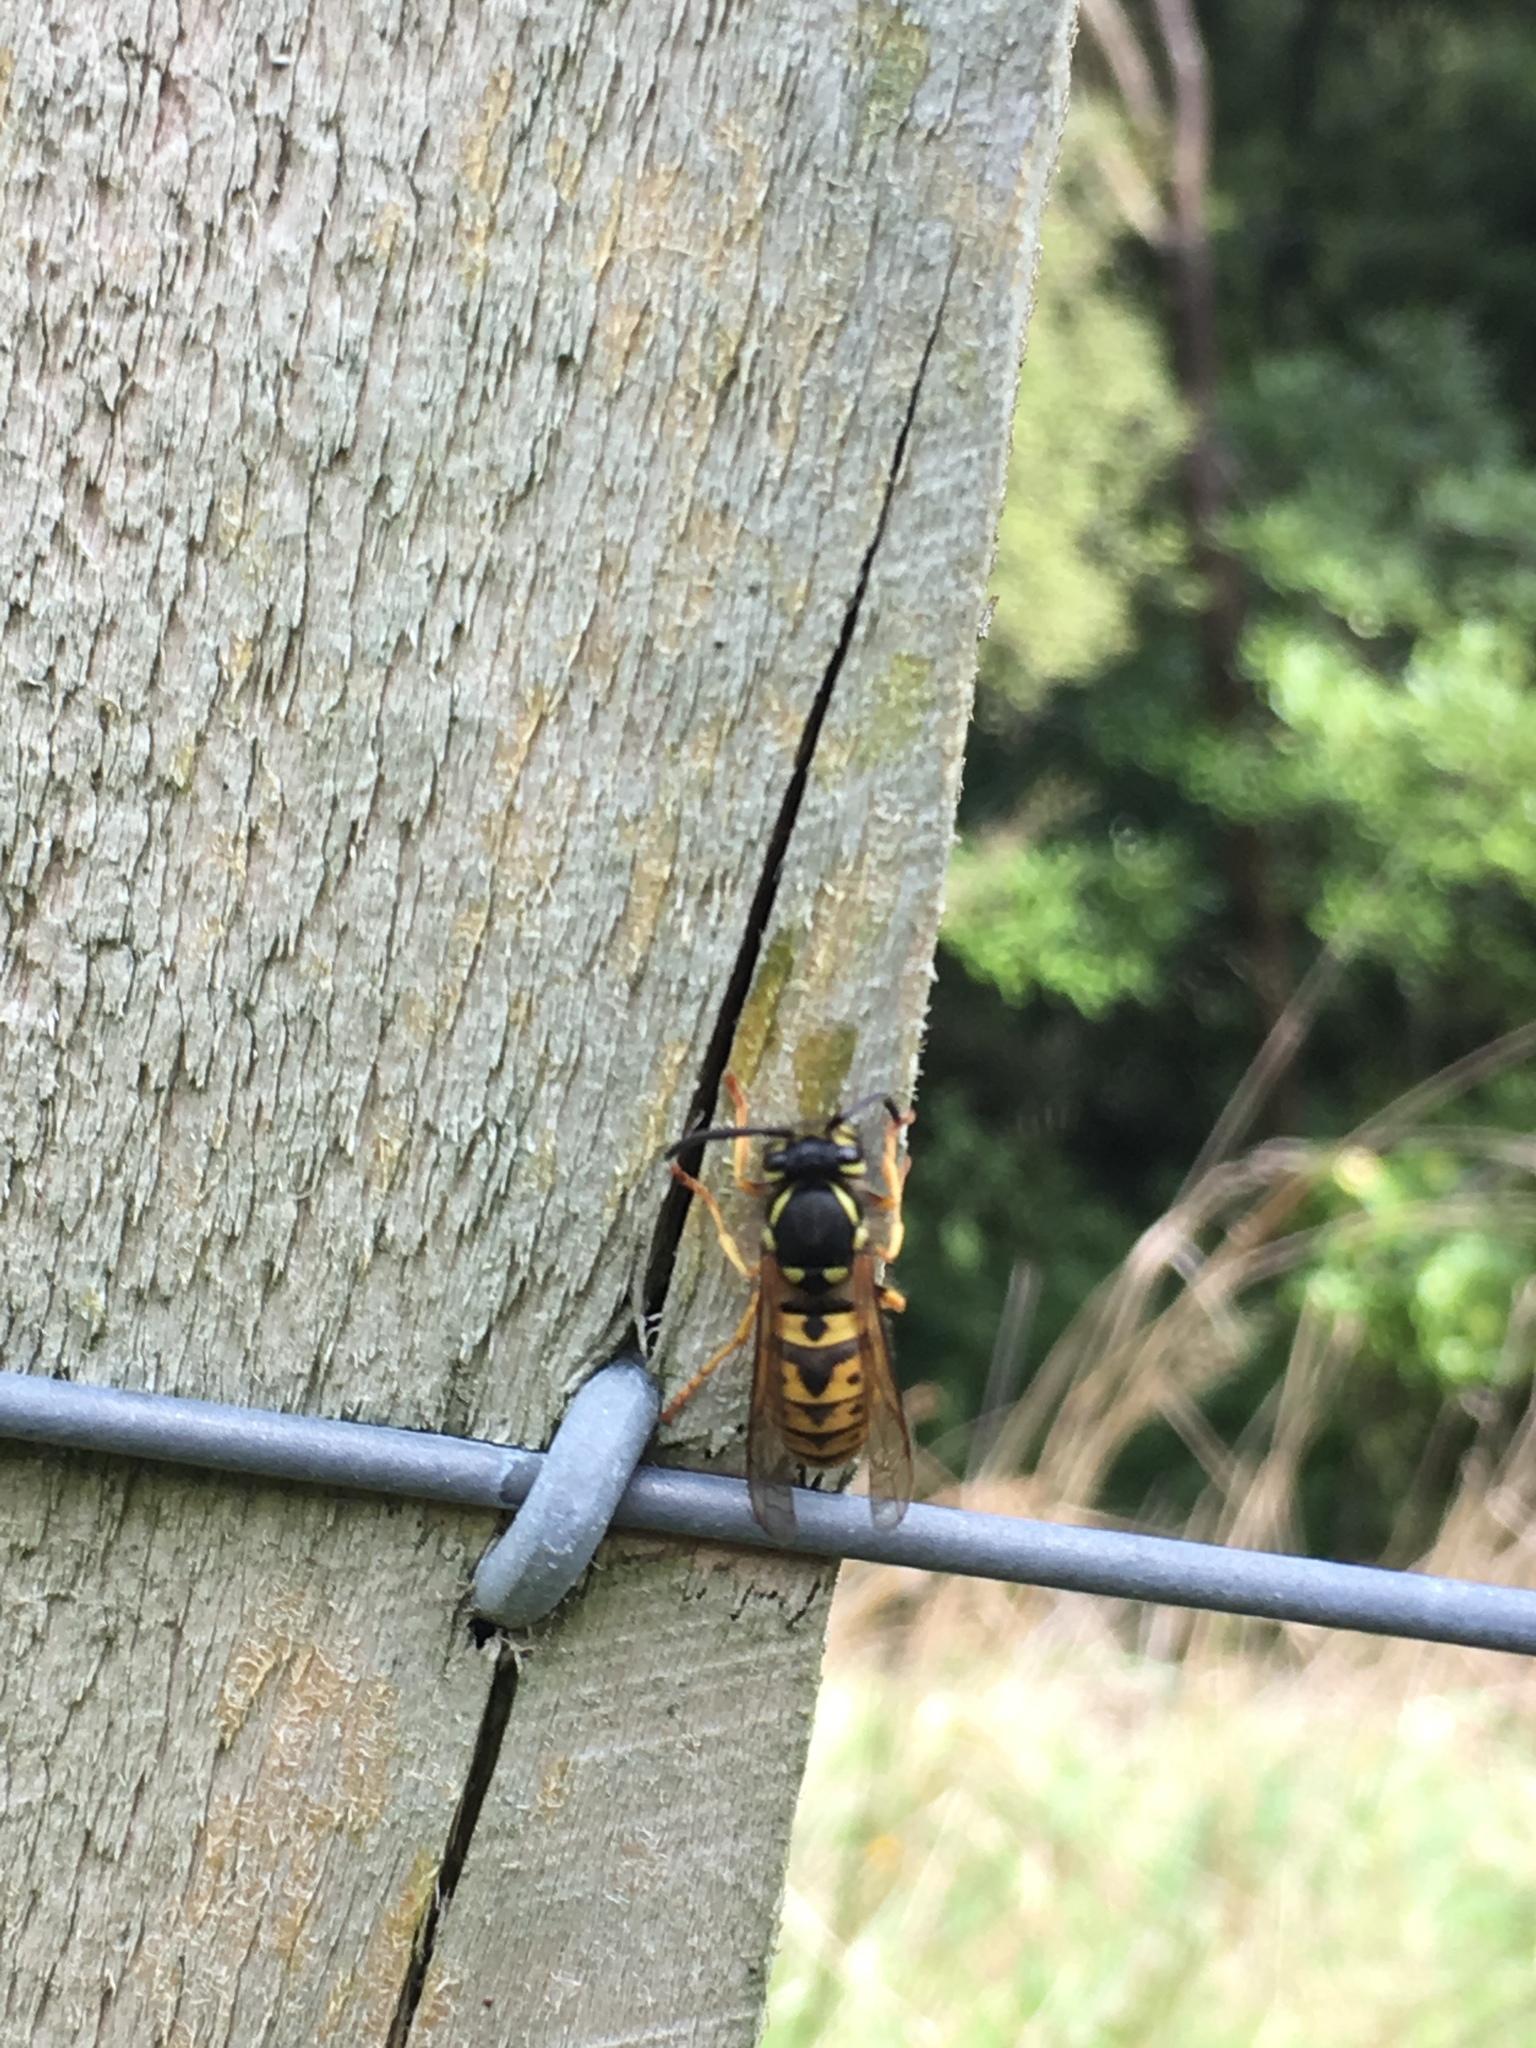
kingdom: Animalia
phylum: Arthropoda
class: Insecta
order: Hymenoptera
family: Vespidae
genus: Vespula
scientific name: Vespula germanica
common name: German wasp
